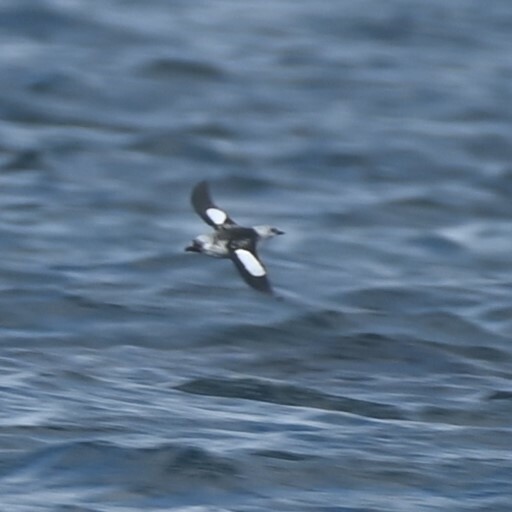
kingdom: Animalia
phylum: Chordata
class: Aves
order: Charadriiformes
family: Alcidae
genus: Cepphus
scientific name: Cepphus grylle
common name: Black guillemot
